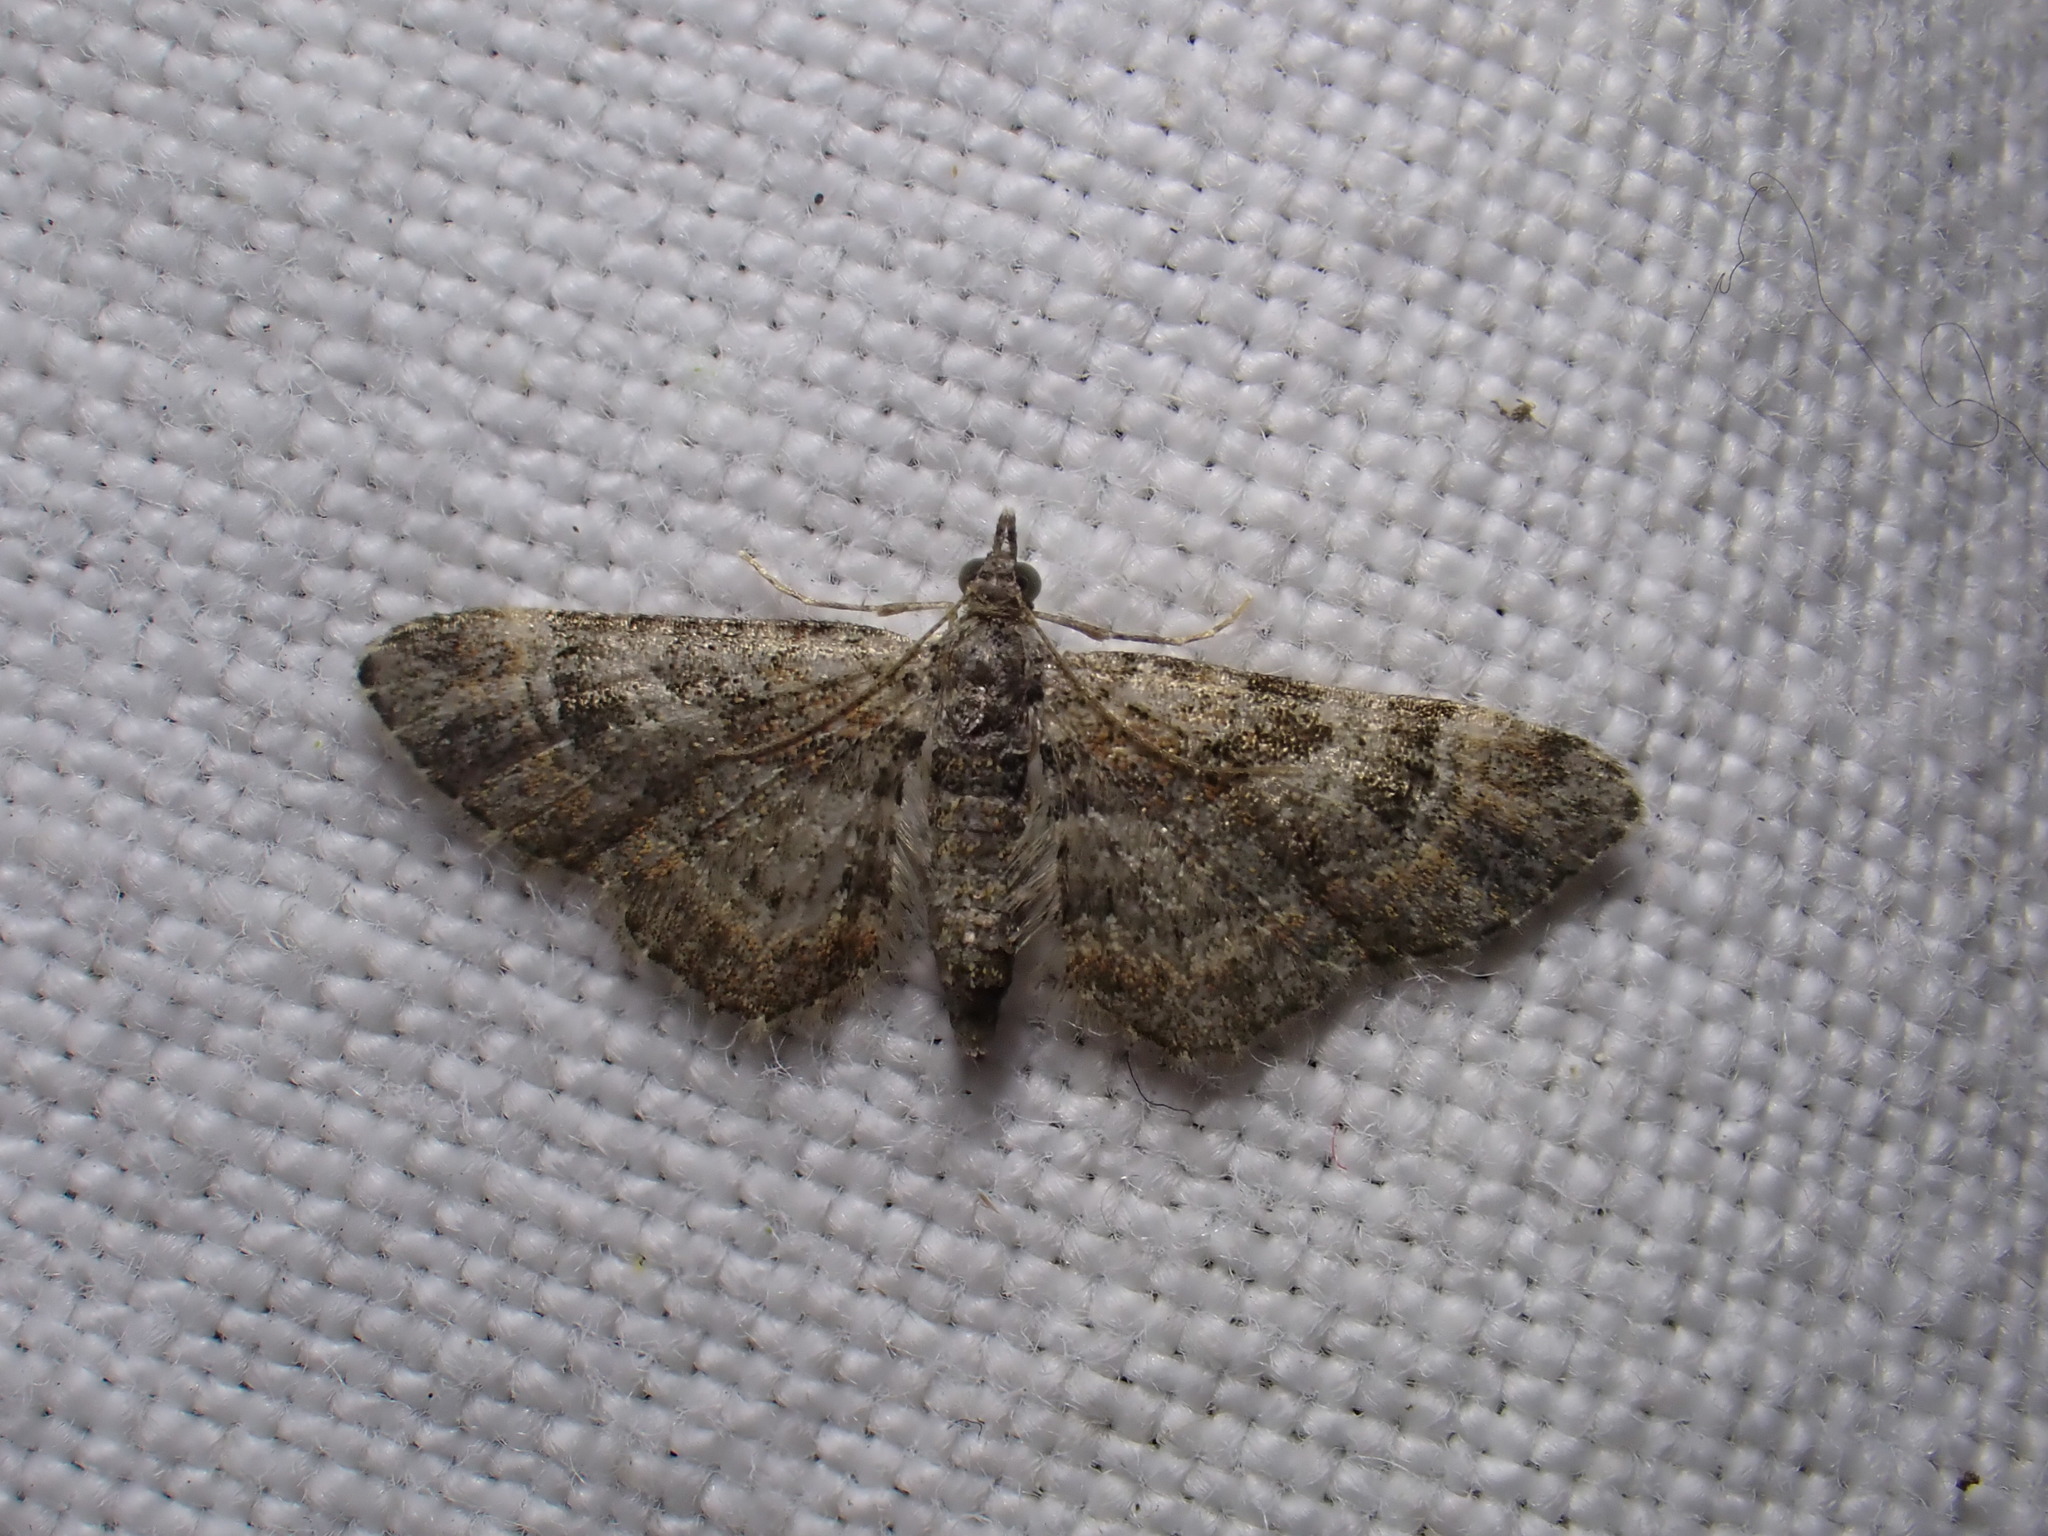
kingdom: Animalia
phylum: Arthropoda
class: Insecta
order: Lepidoptera
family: Geometridae
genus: Gymnoscelis
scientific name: Gymnoscelis rufifasciata
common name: Double-striped pug
